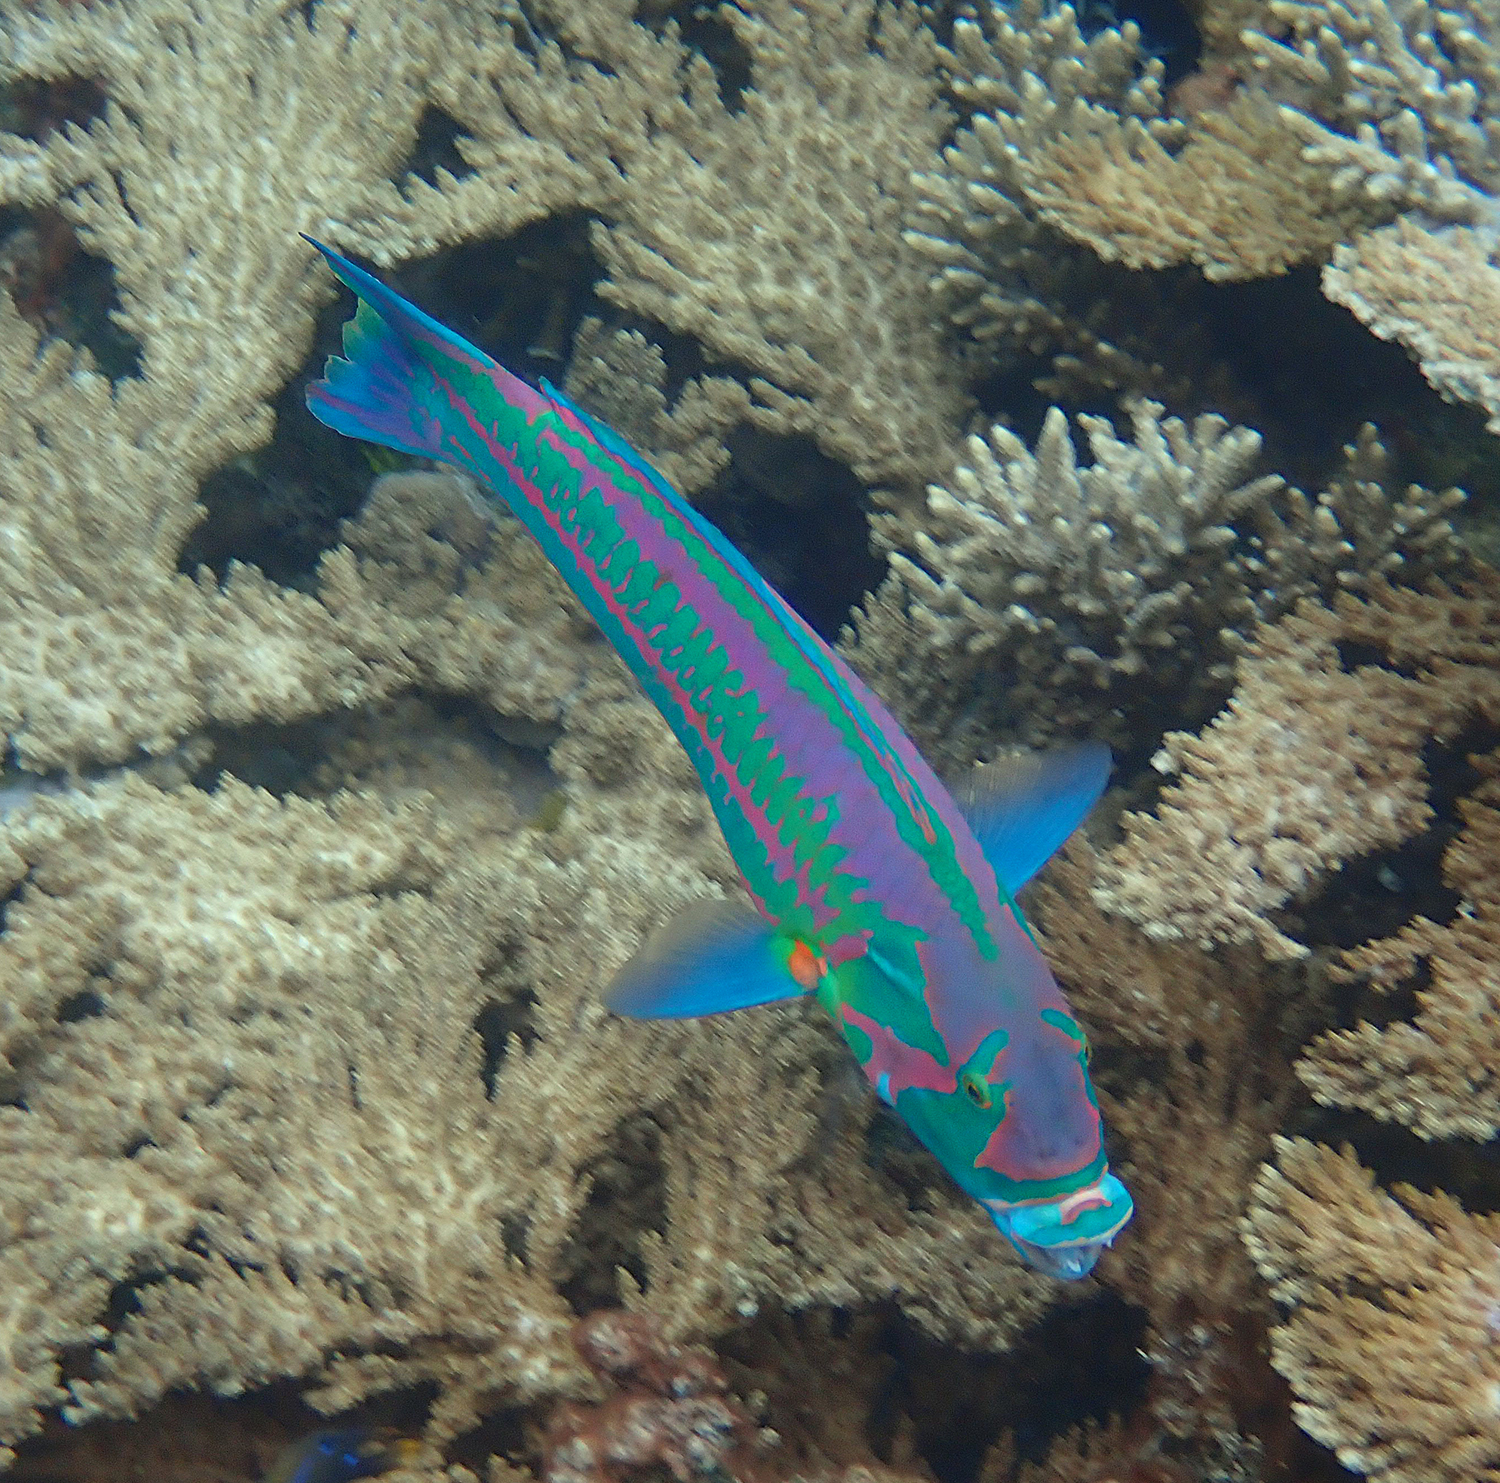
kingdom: Animalia
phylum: Chordata
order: Perciformes
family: Labridae
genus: Thalassoma
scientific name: Thalassoma purpureum
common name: Parrotfish
